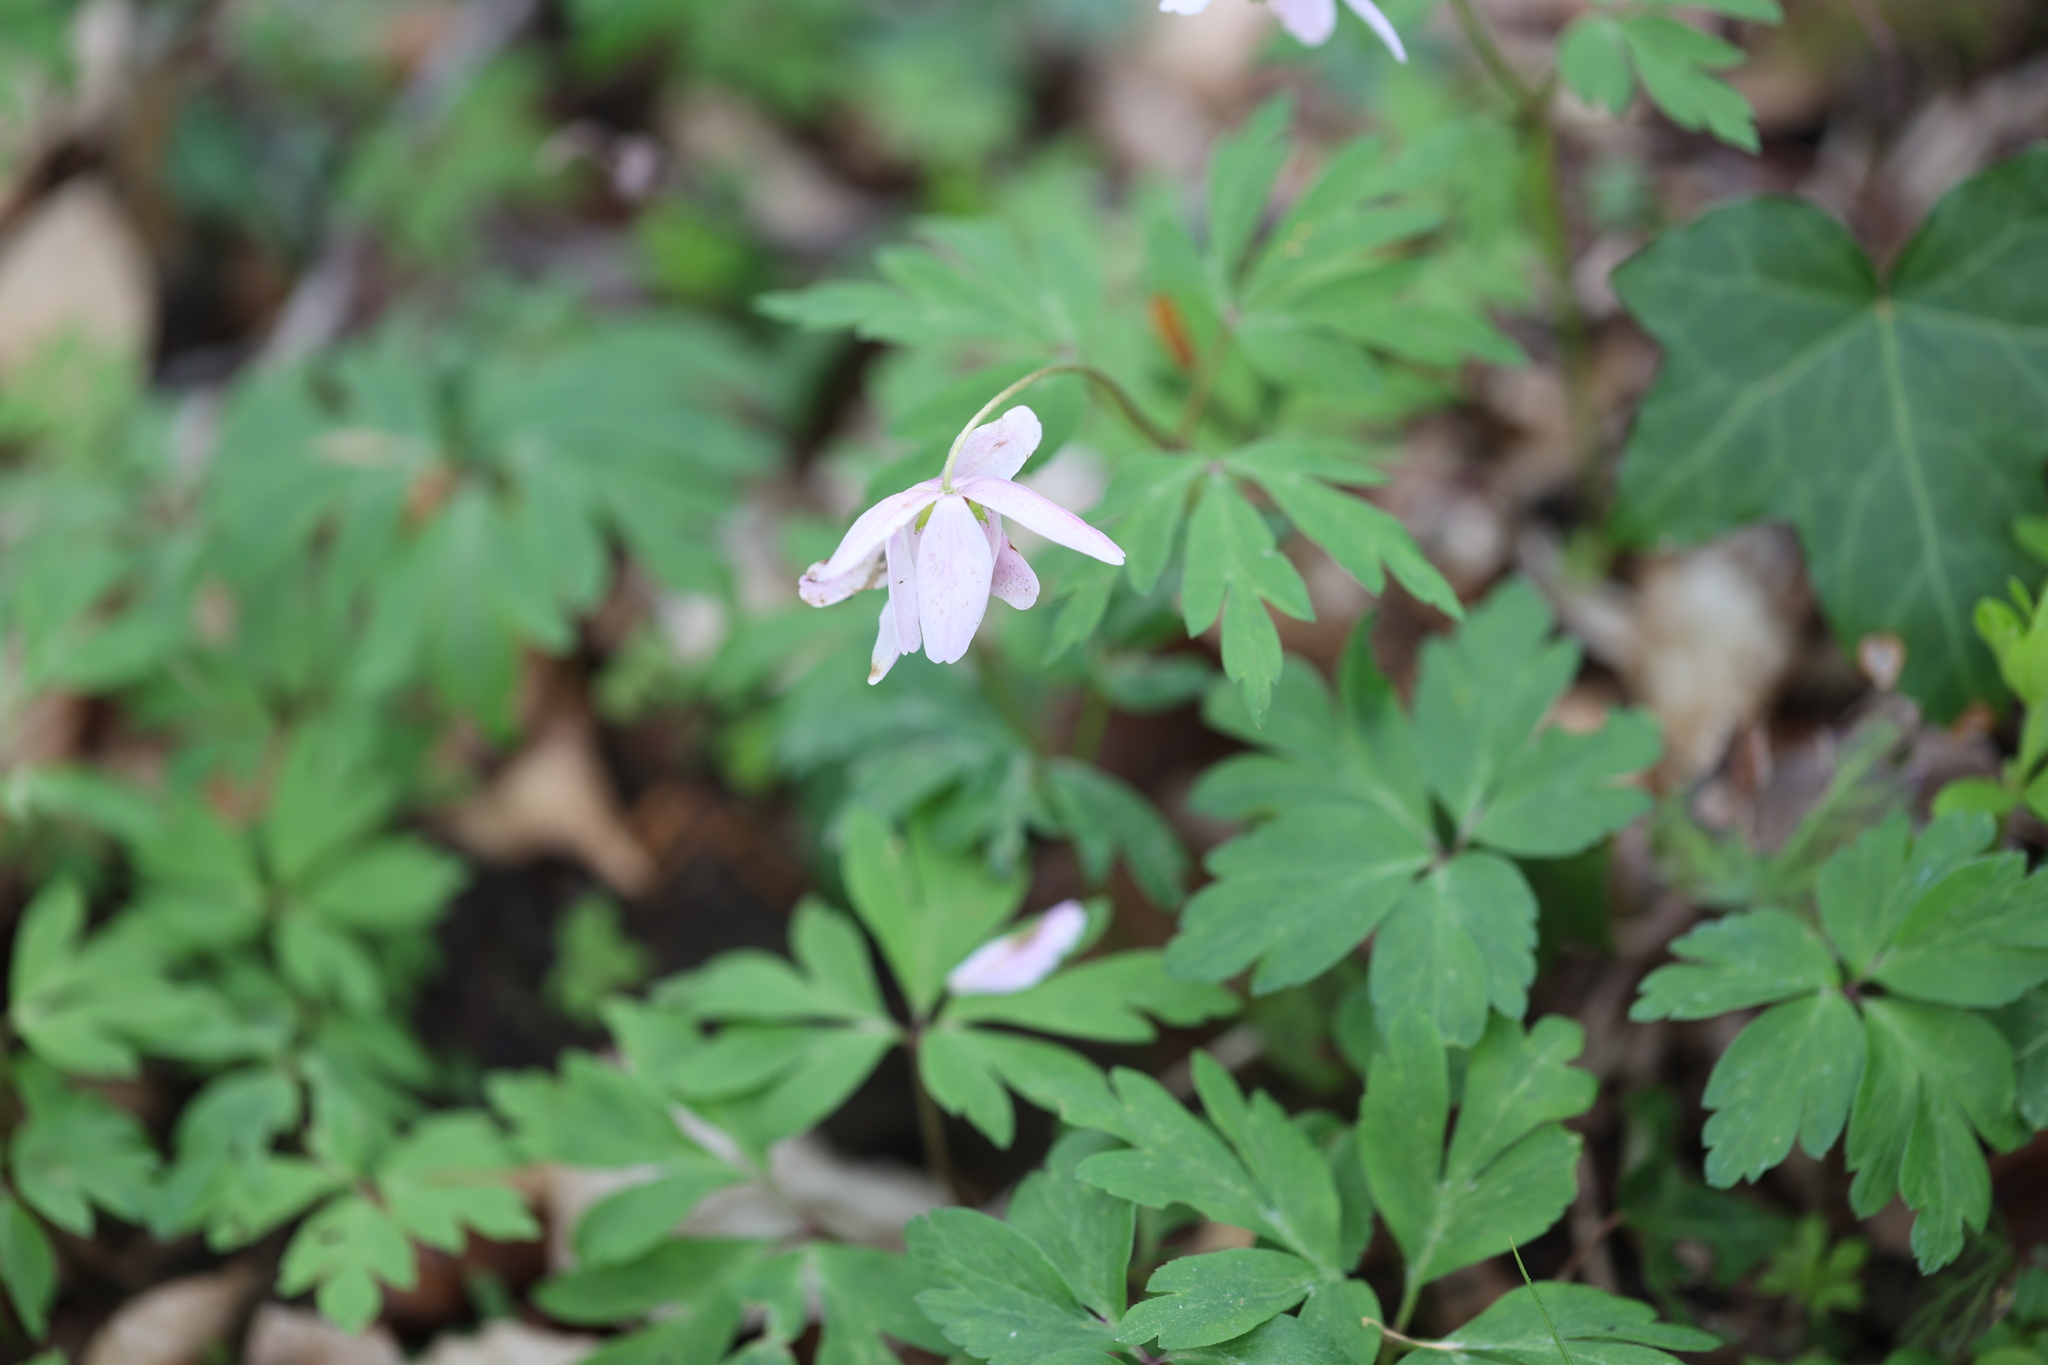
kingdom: Plantae
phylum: Tracheophyta
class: Magnoliopsida
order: Ranunculales
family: Ranunculaceae
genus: Anemone
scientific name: Anemone nemorosa
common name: Wood anemone
